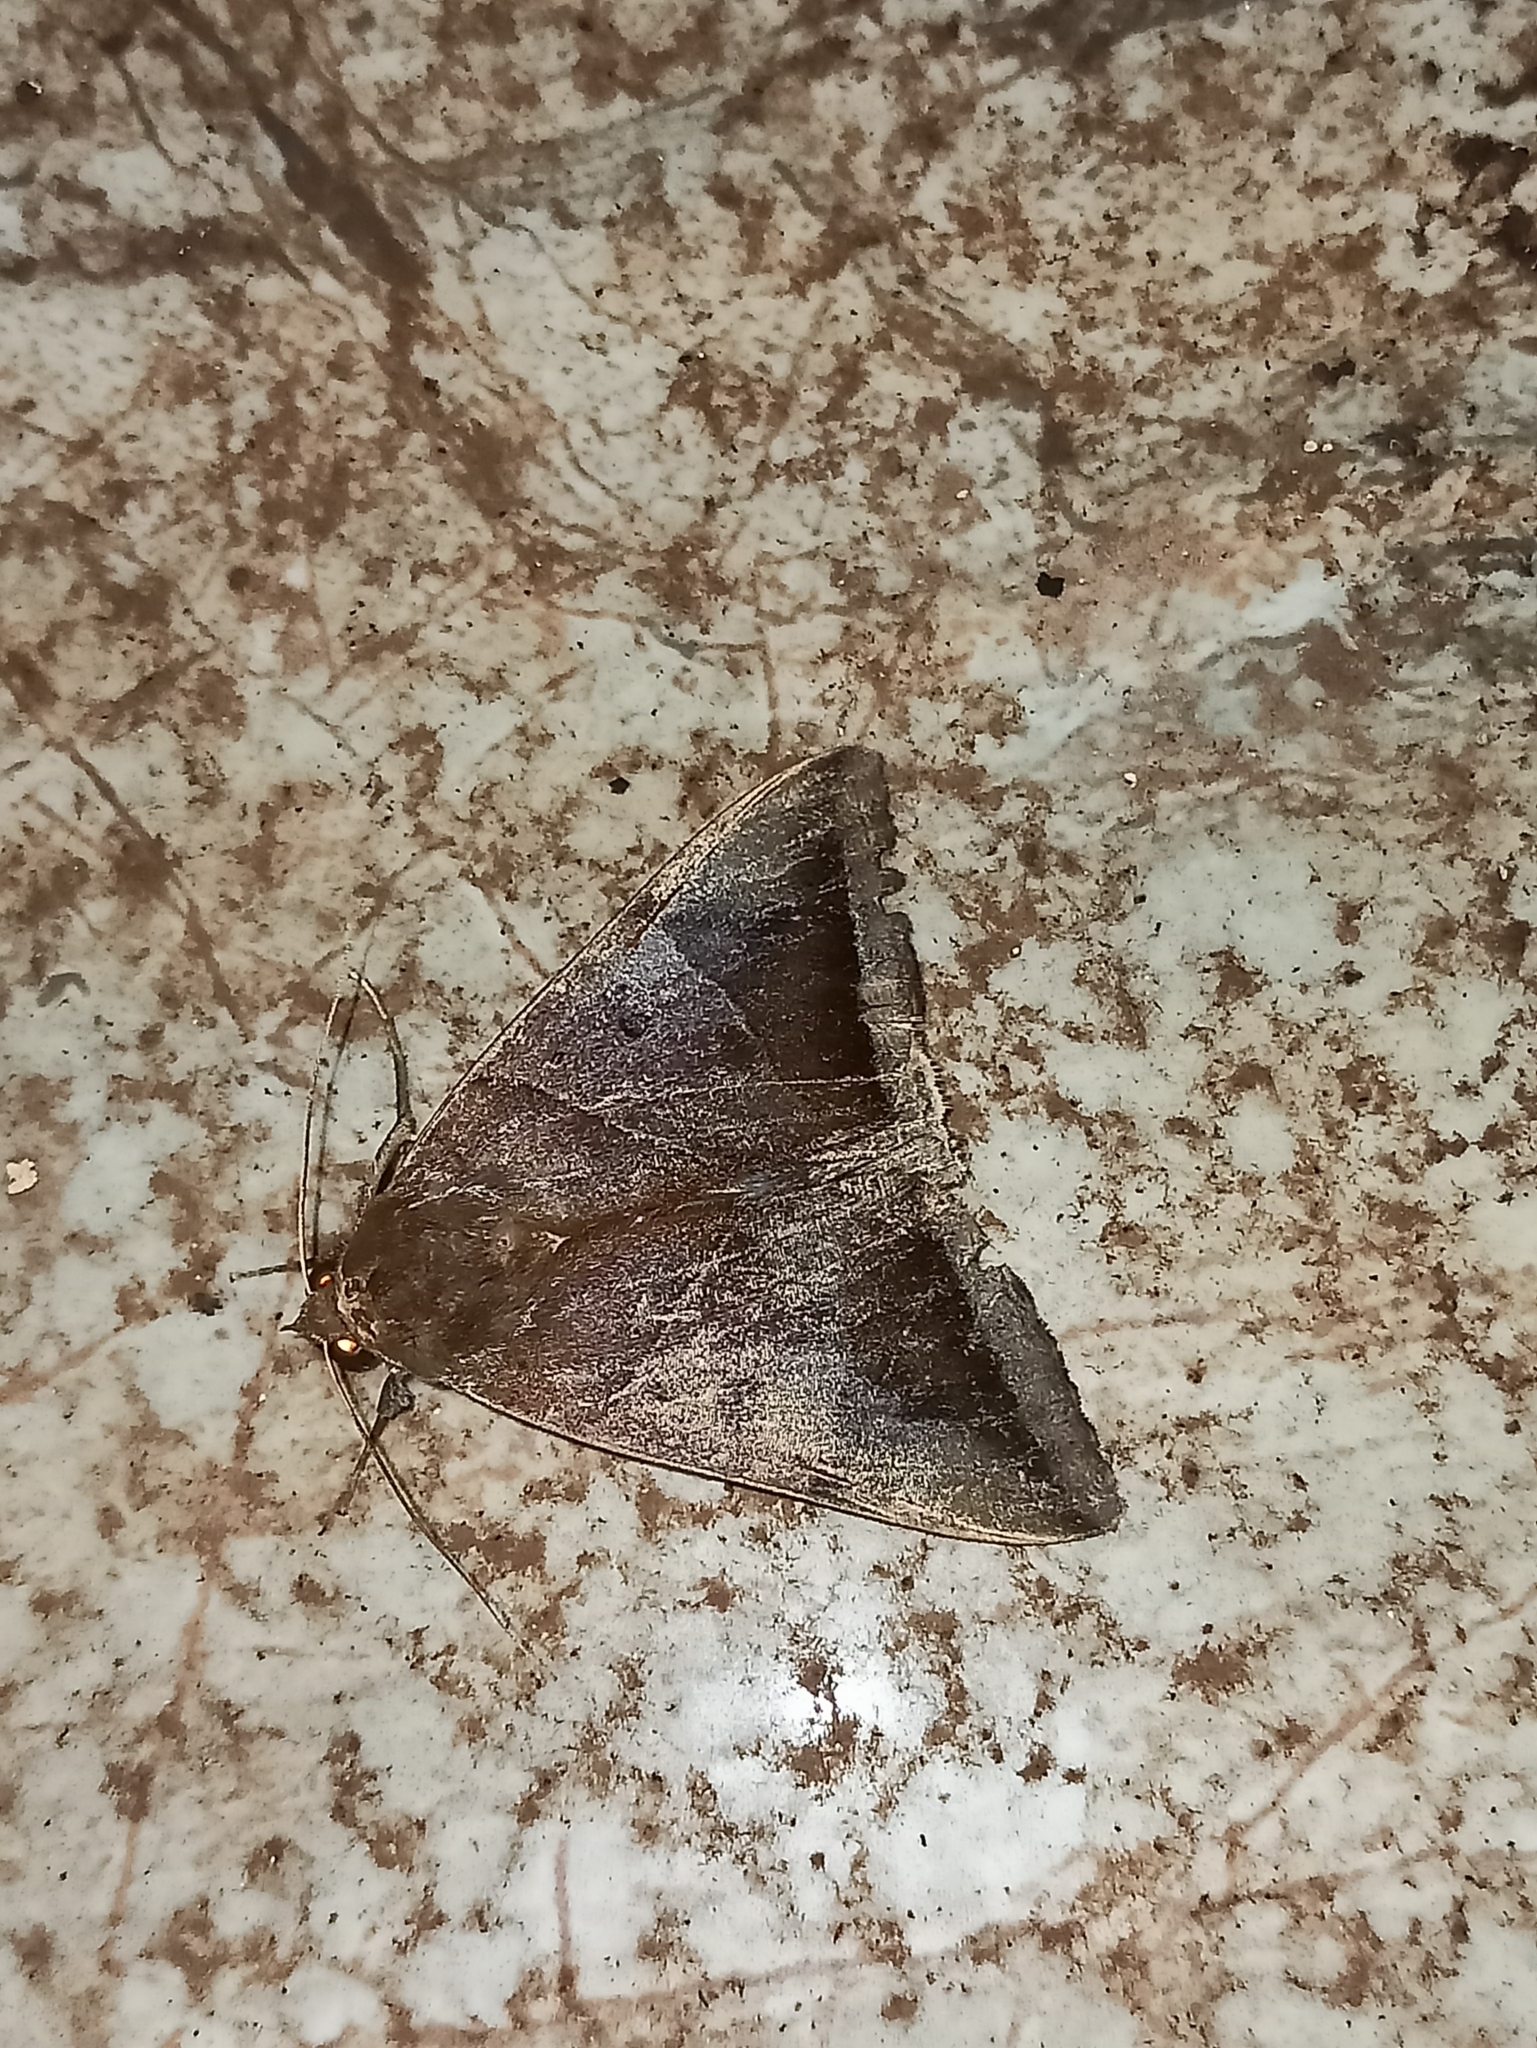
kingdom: Animalia
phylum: Arthropoda
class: Insecta
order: Lepidoptera
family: Erebidae
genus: Artena
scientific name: Artena dotata
